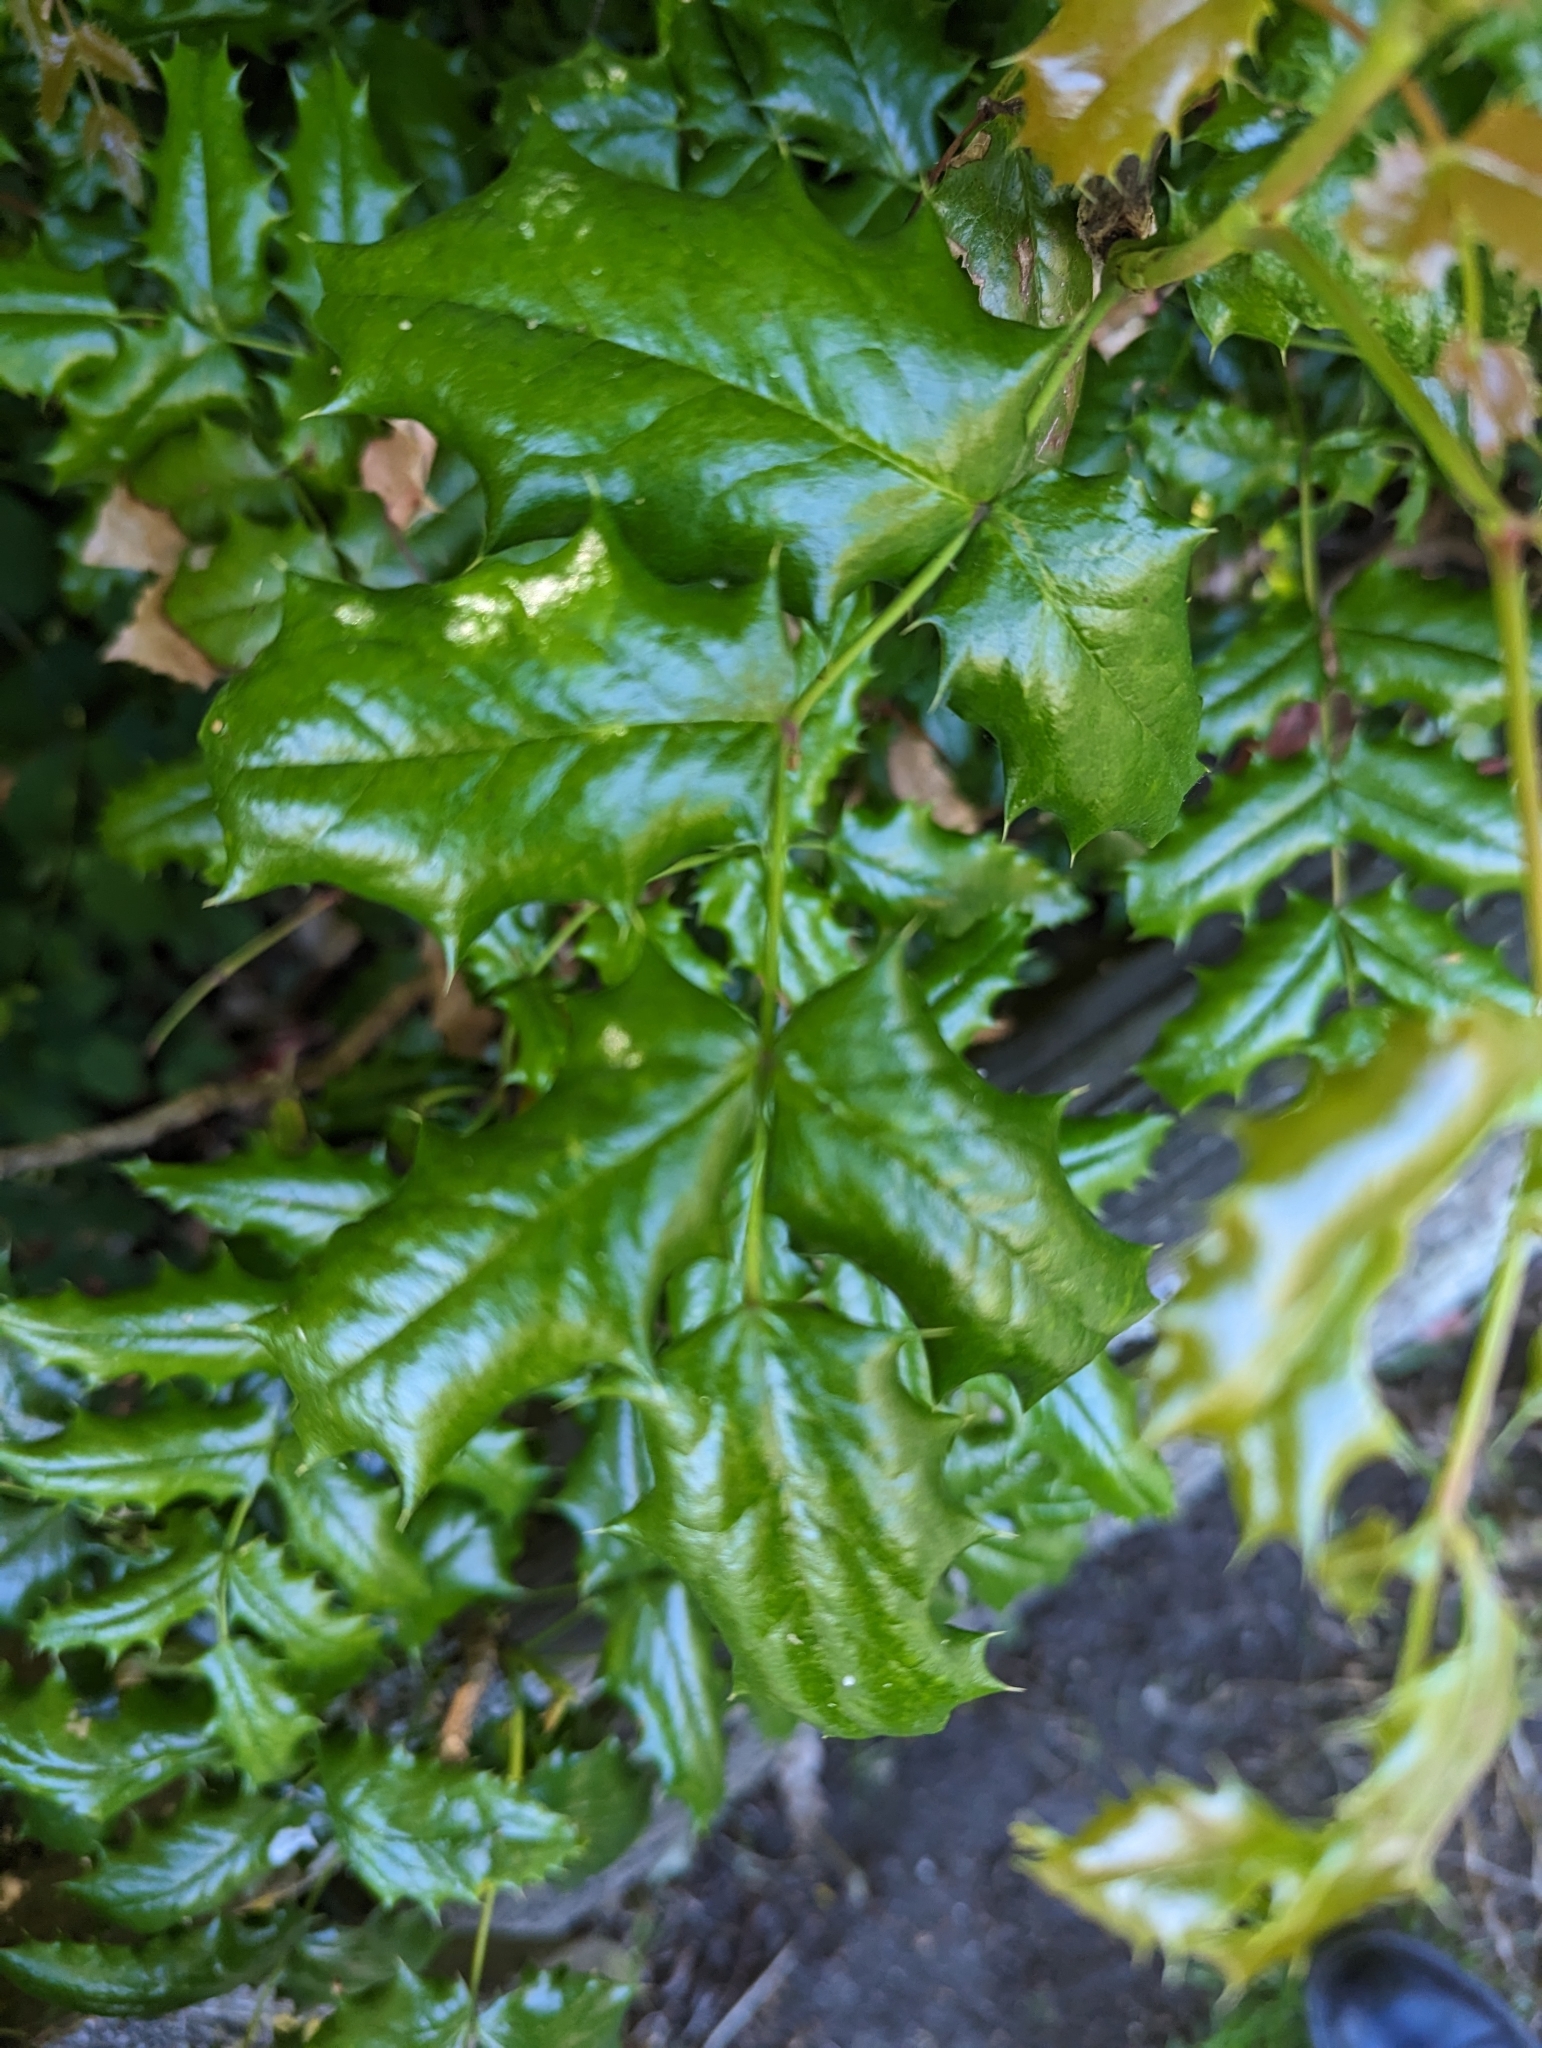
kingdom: Plantae
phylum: Tracheophyta
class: Magnoliopsida
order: Ranunculales
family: Berberidaceae
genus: Mahonia
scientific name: Mahonia aquifolium
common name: Oregon-grape
